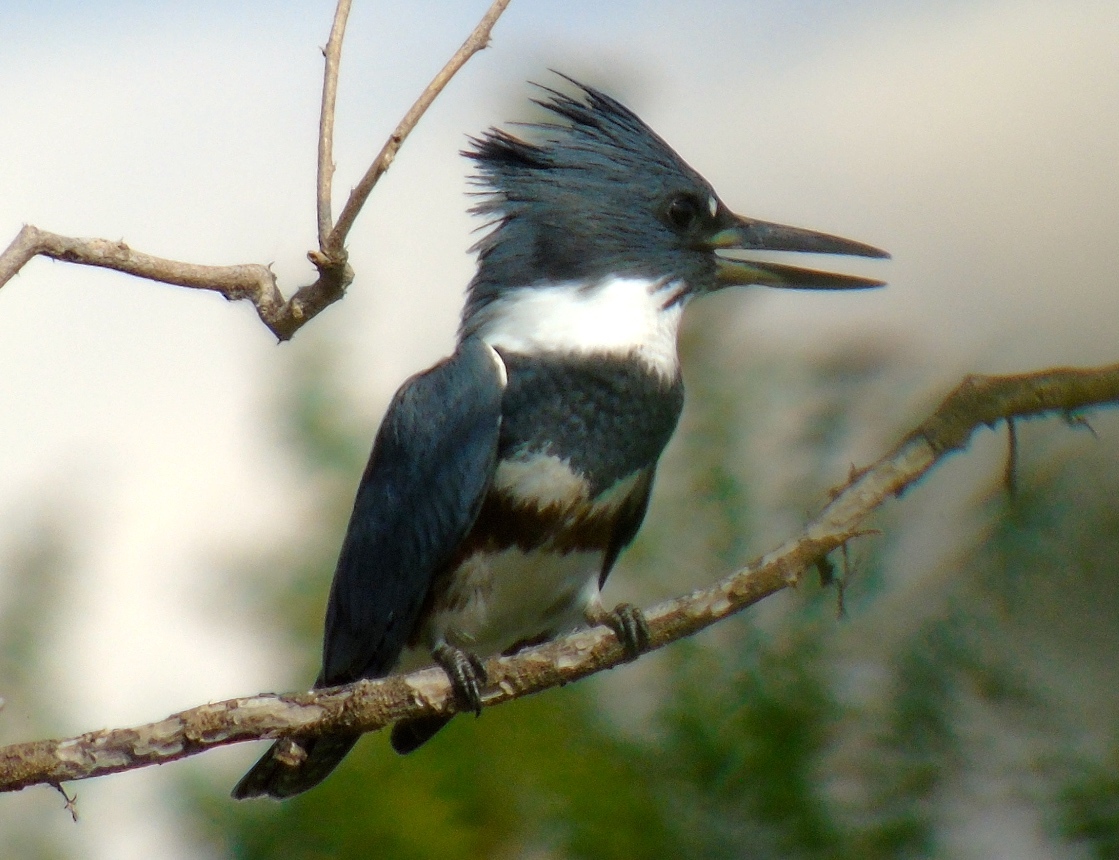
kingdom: Animalia
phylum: Chordata
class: Aves
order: Coraciiformes
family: Alcedinidae
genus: Megaceryle
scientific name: Megaceryle alcyon
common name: Belted kingfisher
